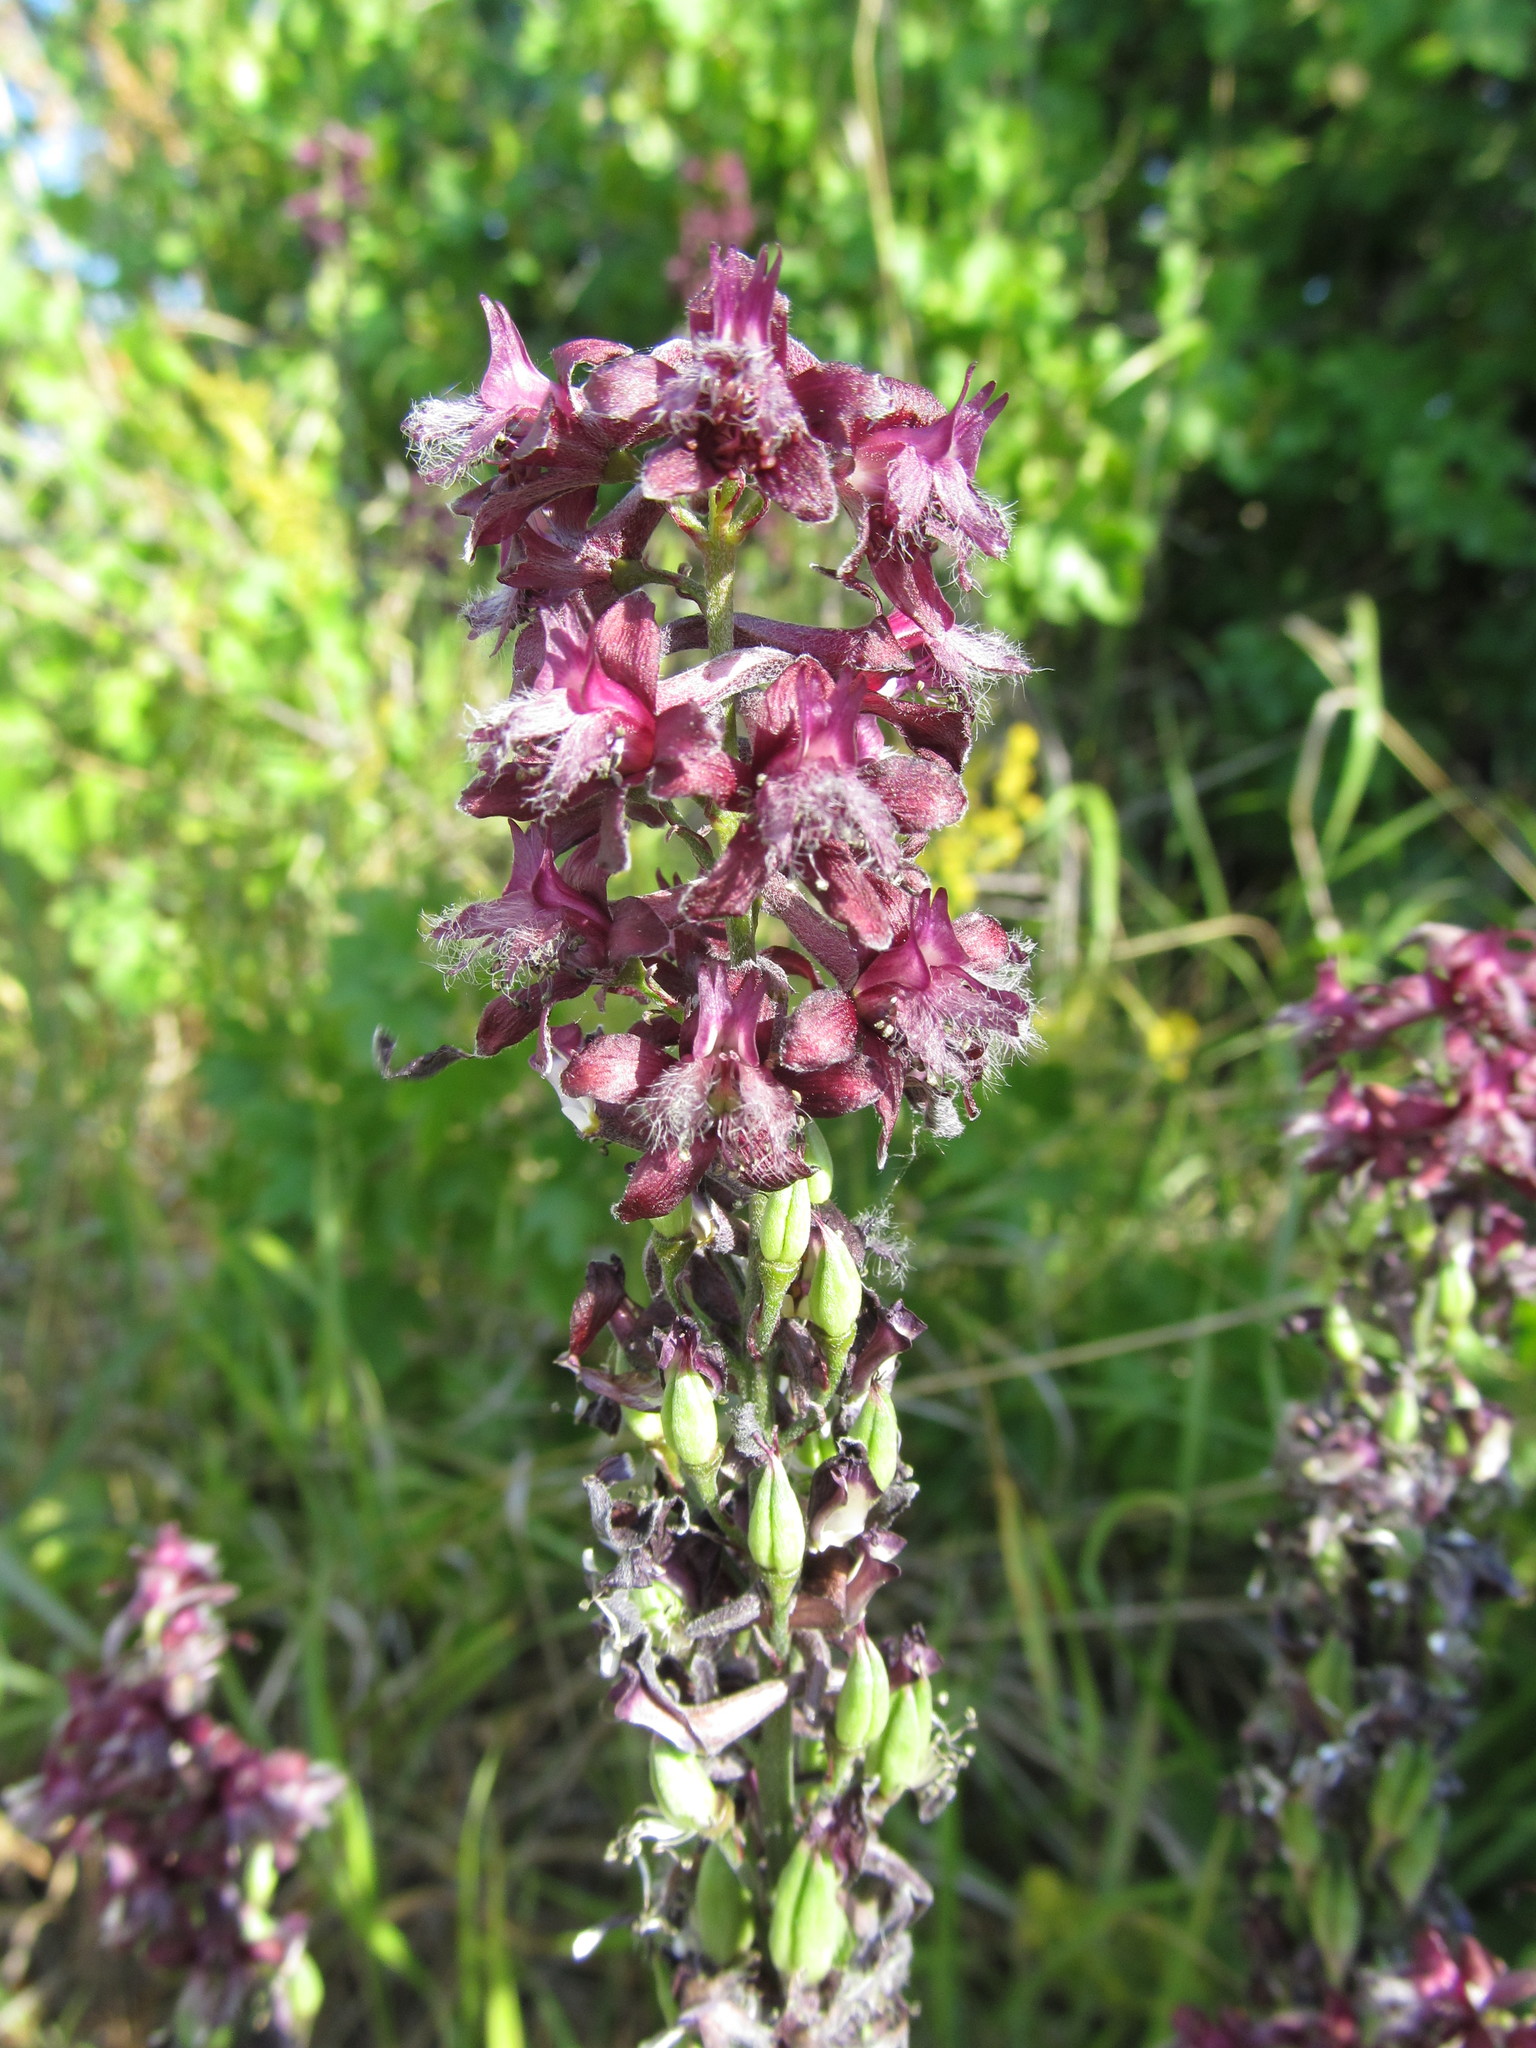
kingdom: Plantae
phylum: Tracheophyta
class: Magnoliopsida
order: Ranunculales
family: Ranunculaceae
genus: Delphinium
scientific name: Delphinium puniceum
